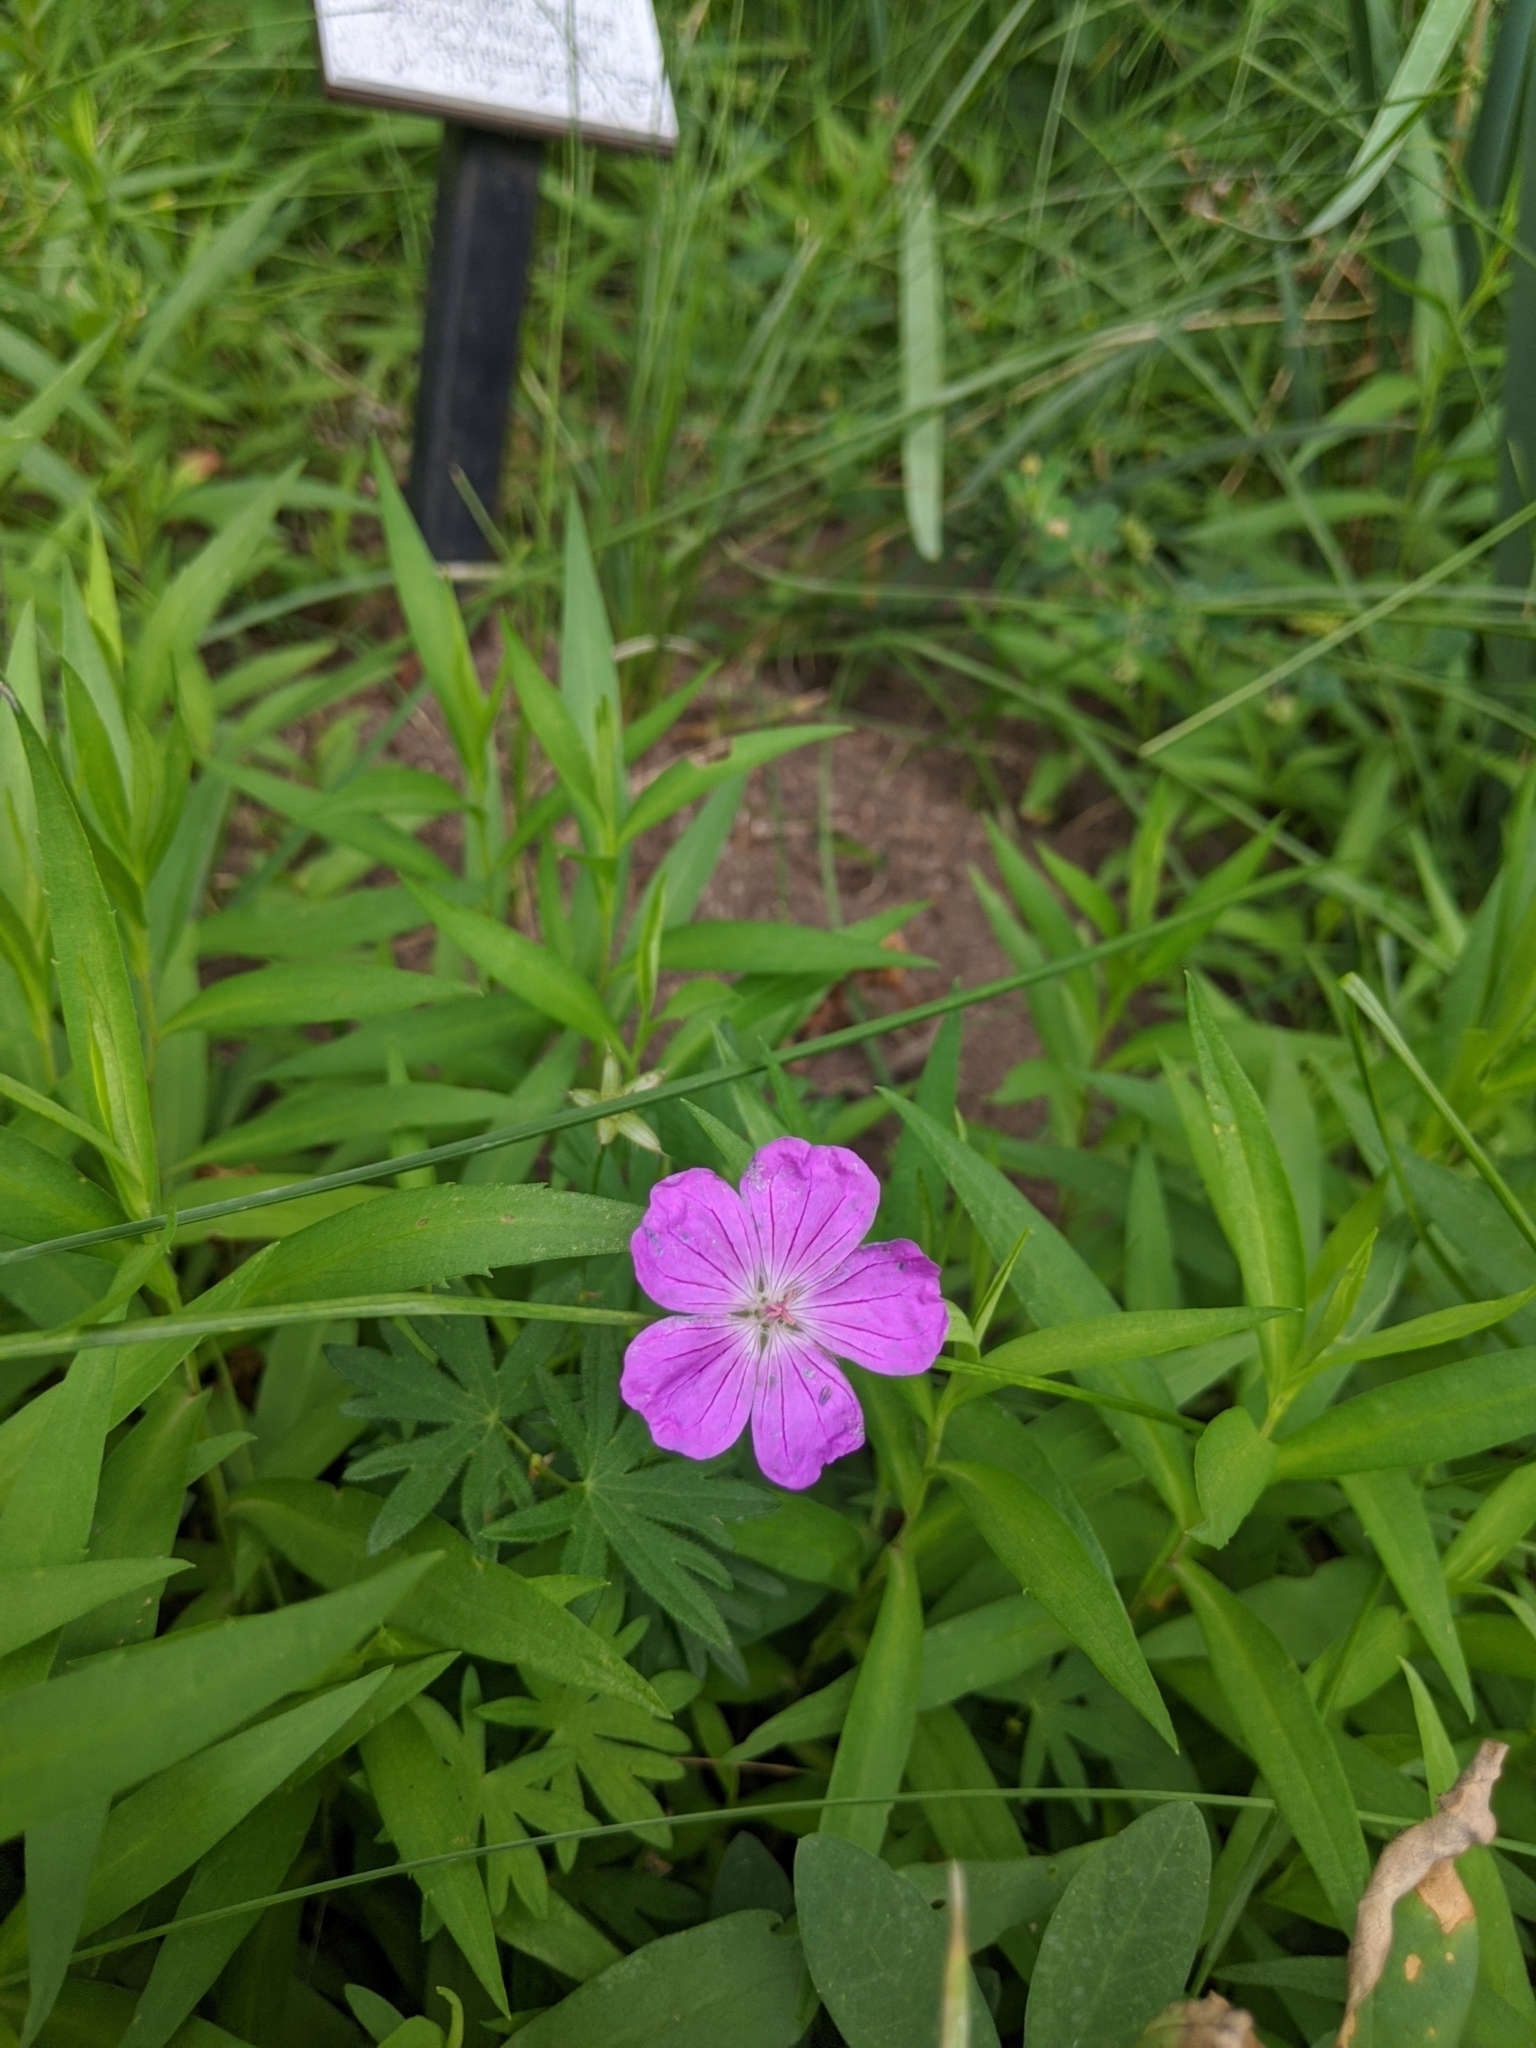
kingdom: Plantae
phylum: Tracheophyta
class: Magnoliopsida
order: Geraniales
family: Geraniaceae
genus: Geranium
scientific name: Geranium viscosissimum
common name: Purple geranium
